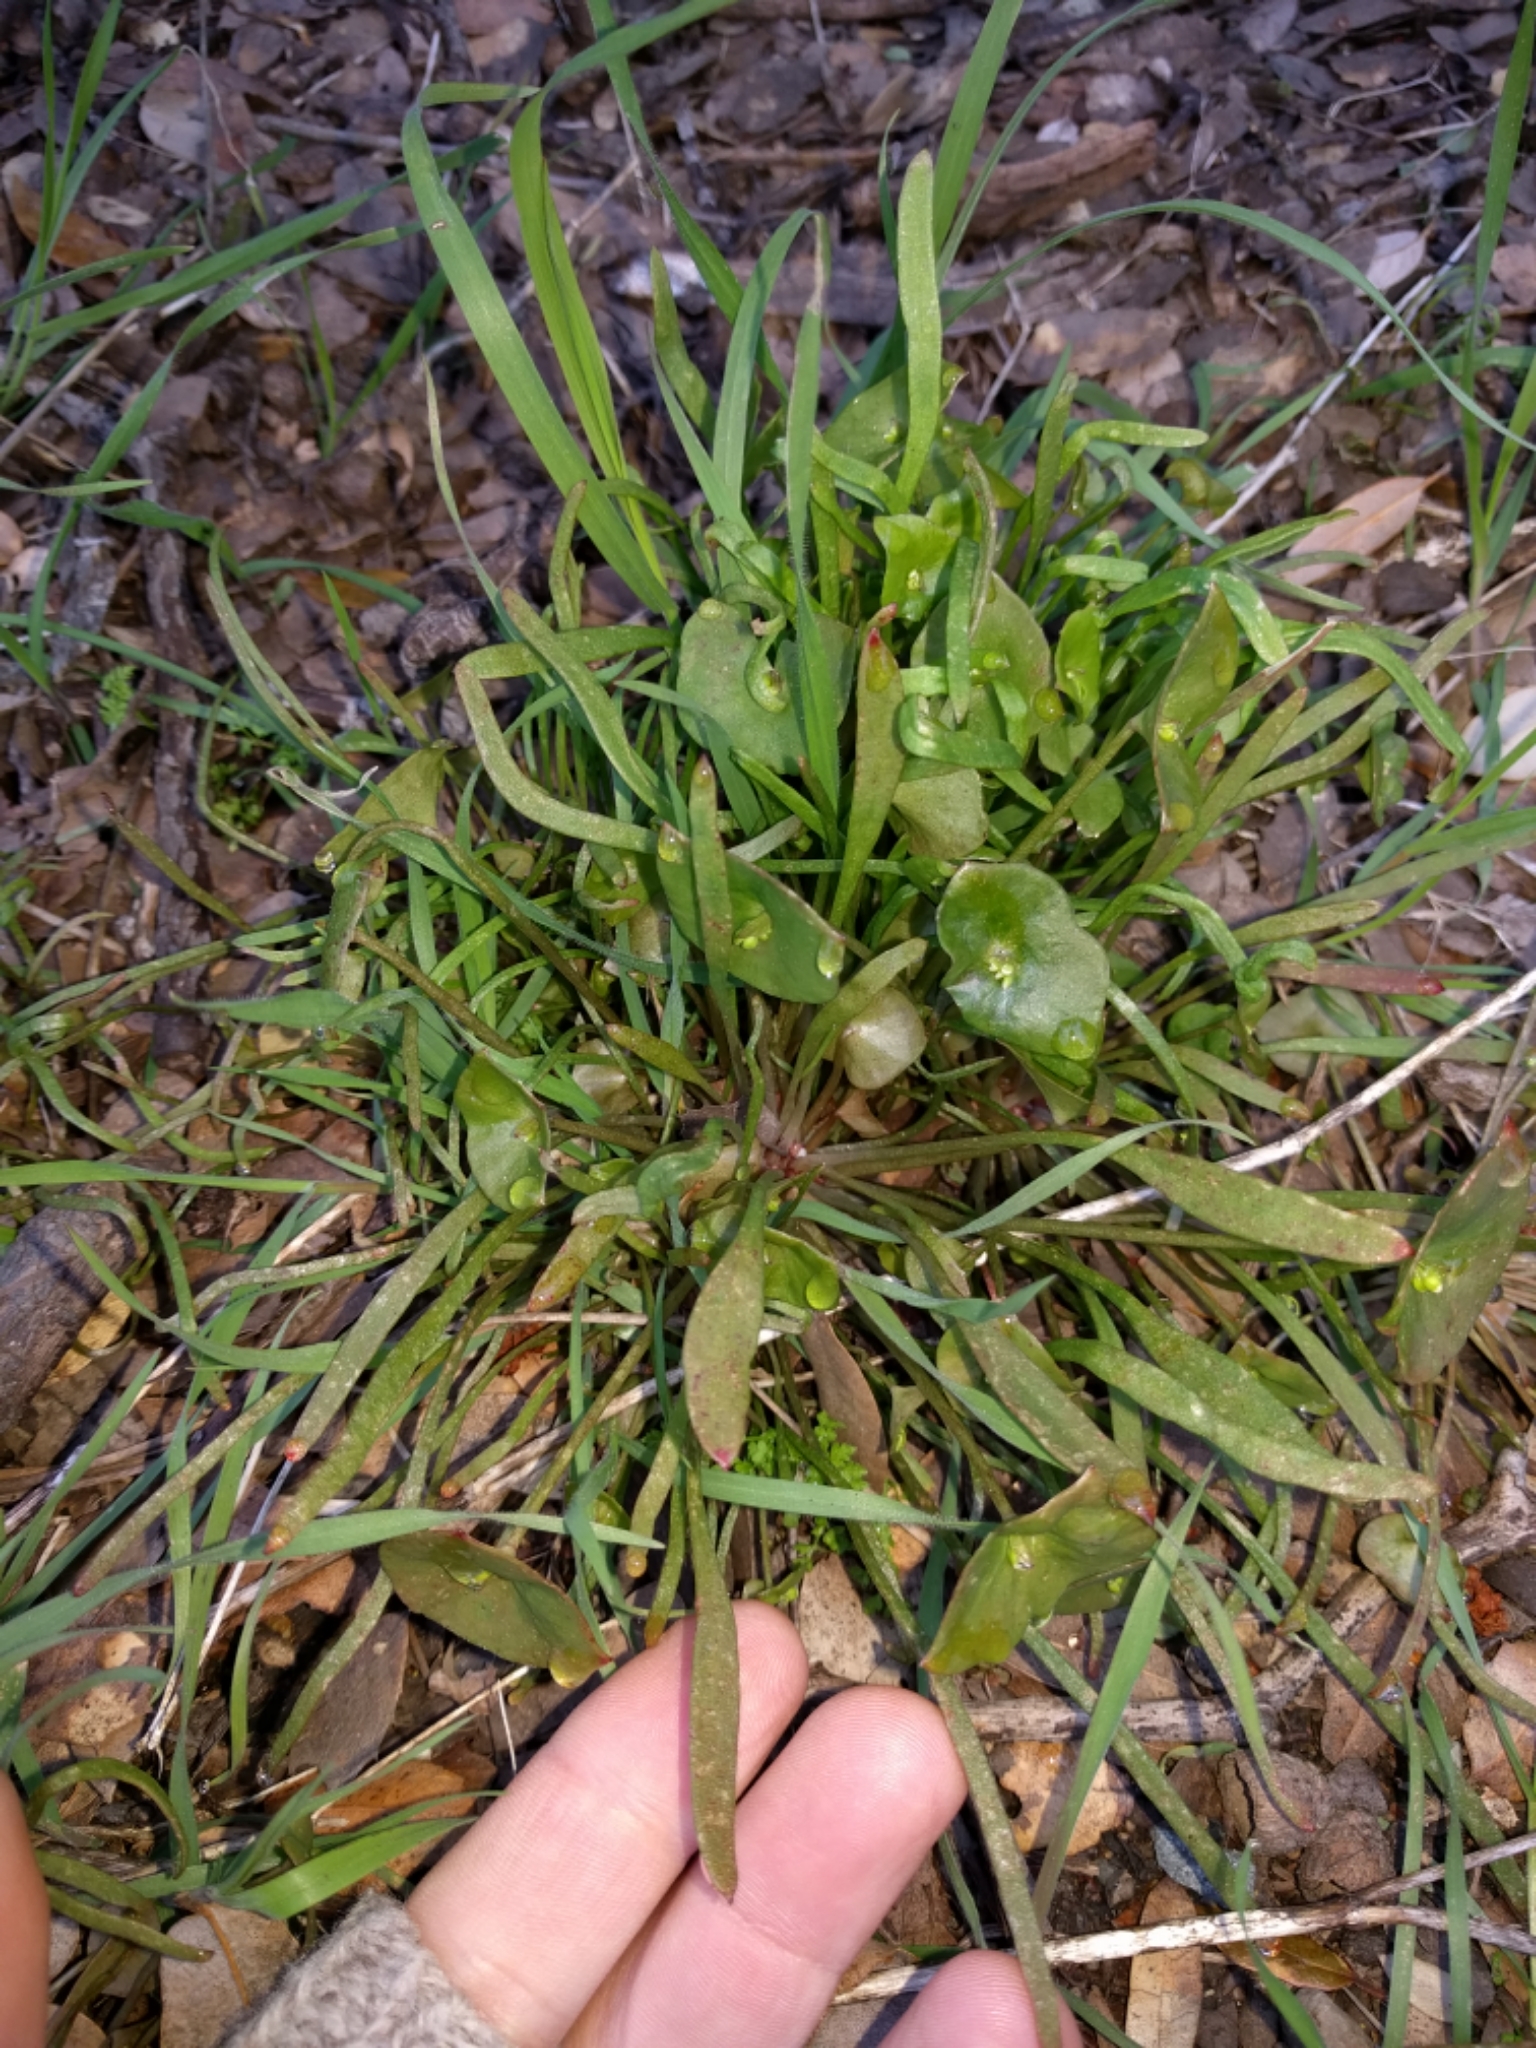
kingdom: Plantae
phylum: Tracheophyta
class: Magnoliopsida
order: Caryophyllales
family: Montiaceae
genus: Claytonia
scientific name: Claytonia parviflora
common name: Indian-lettuce
